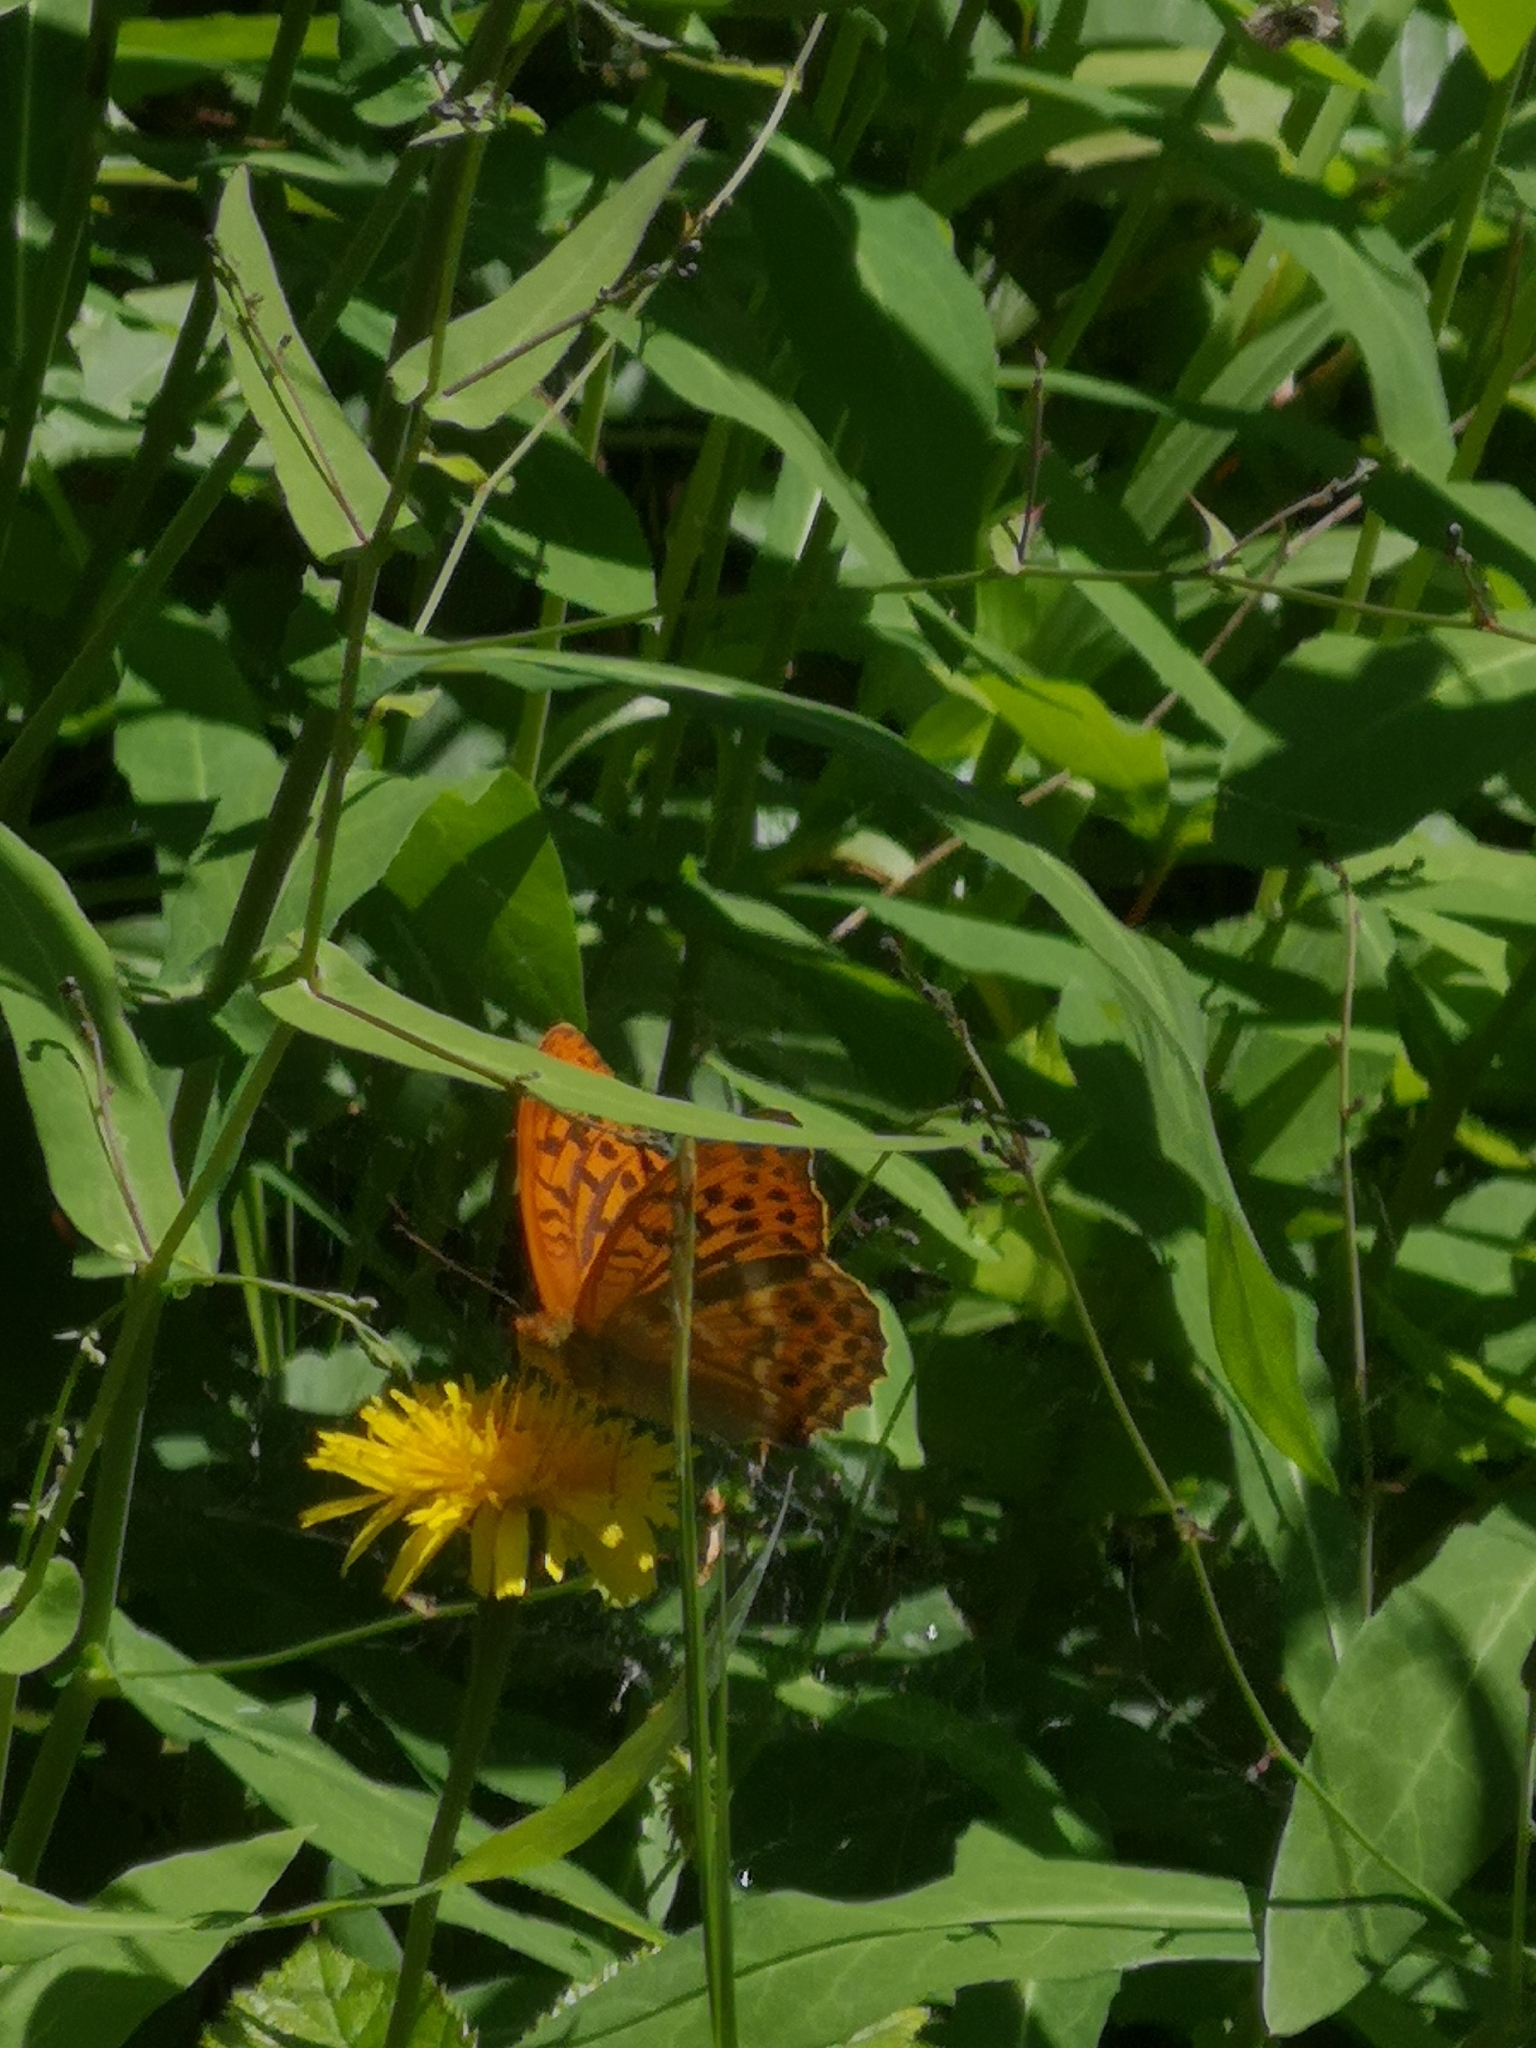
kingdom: Animalia
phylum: Arthropoda
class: Insecta
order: Lepidoptera
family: Nymphalidae
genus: Argynnis
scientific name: Argynnis paphia
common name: Silver-washed fritillary
